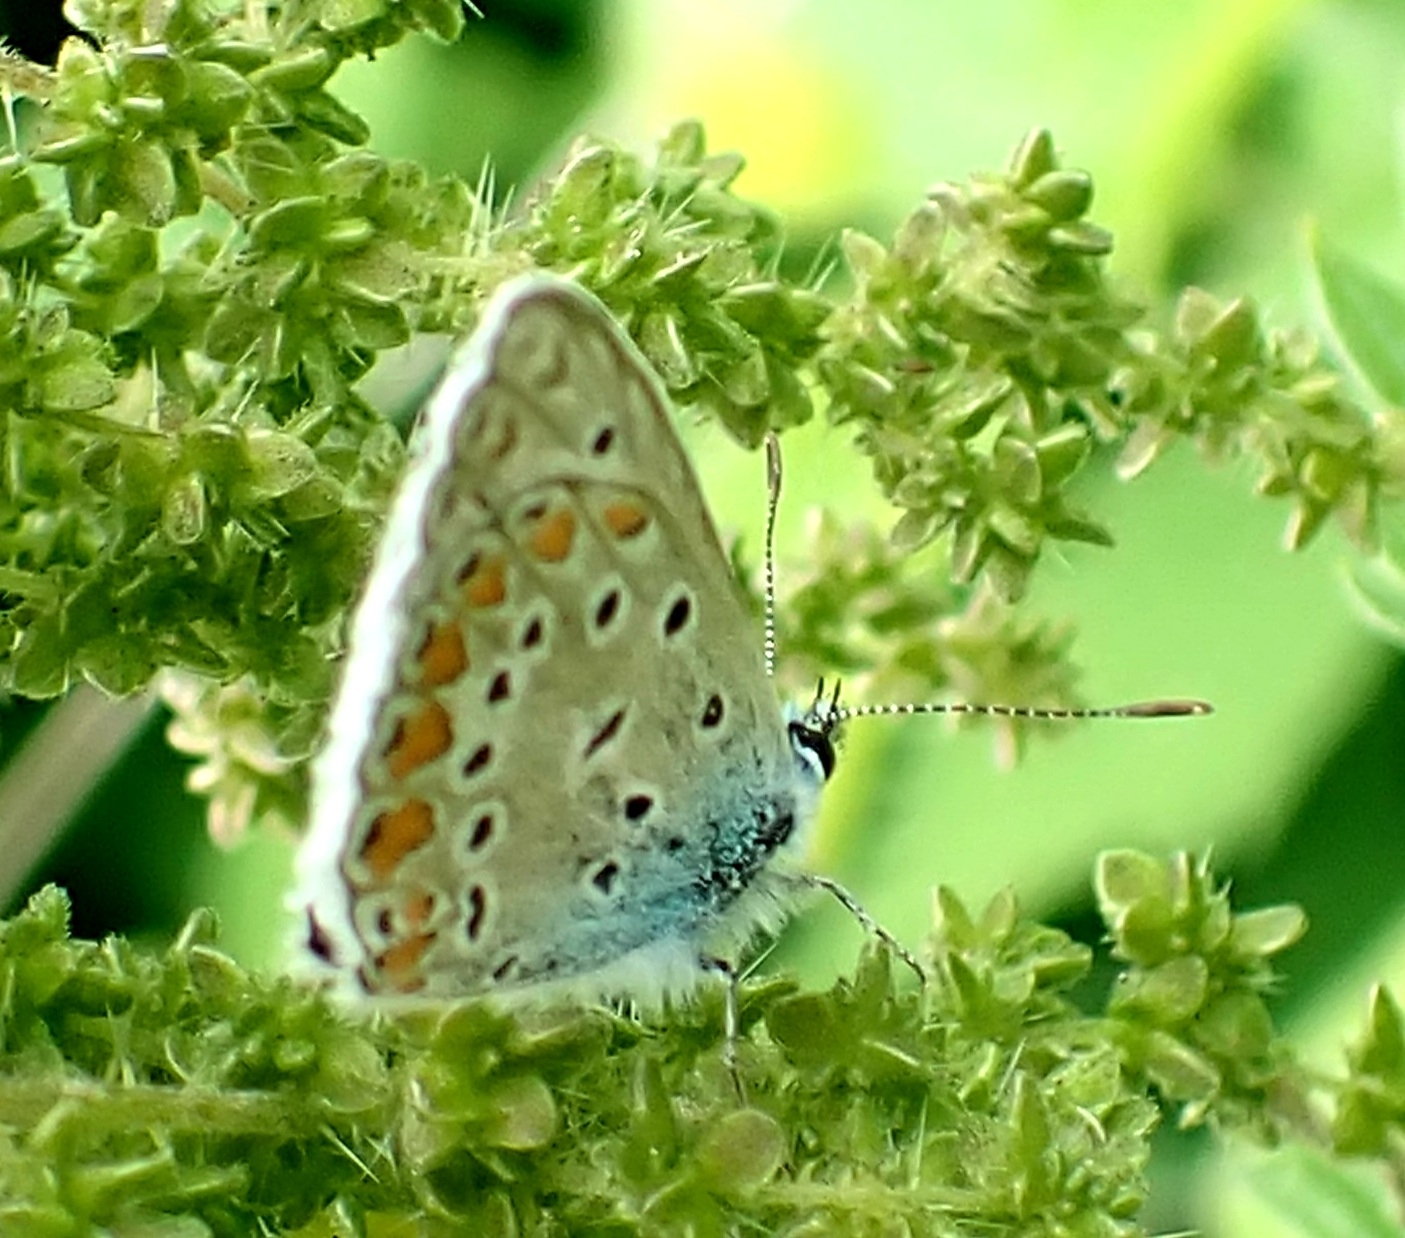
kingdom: Animalia
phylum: Arthropoda
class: Insecta
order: Lepidoptera
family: Lycaenidae
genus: Polyommatus
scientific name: Polyommatus icarus
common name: Common blue
